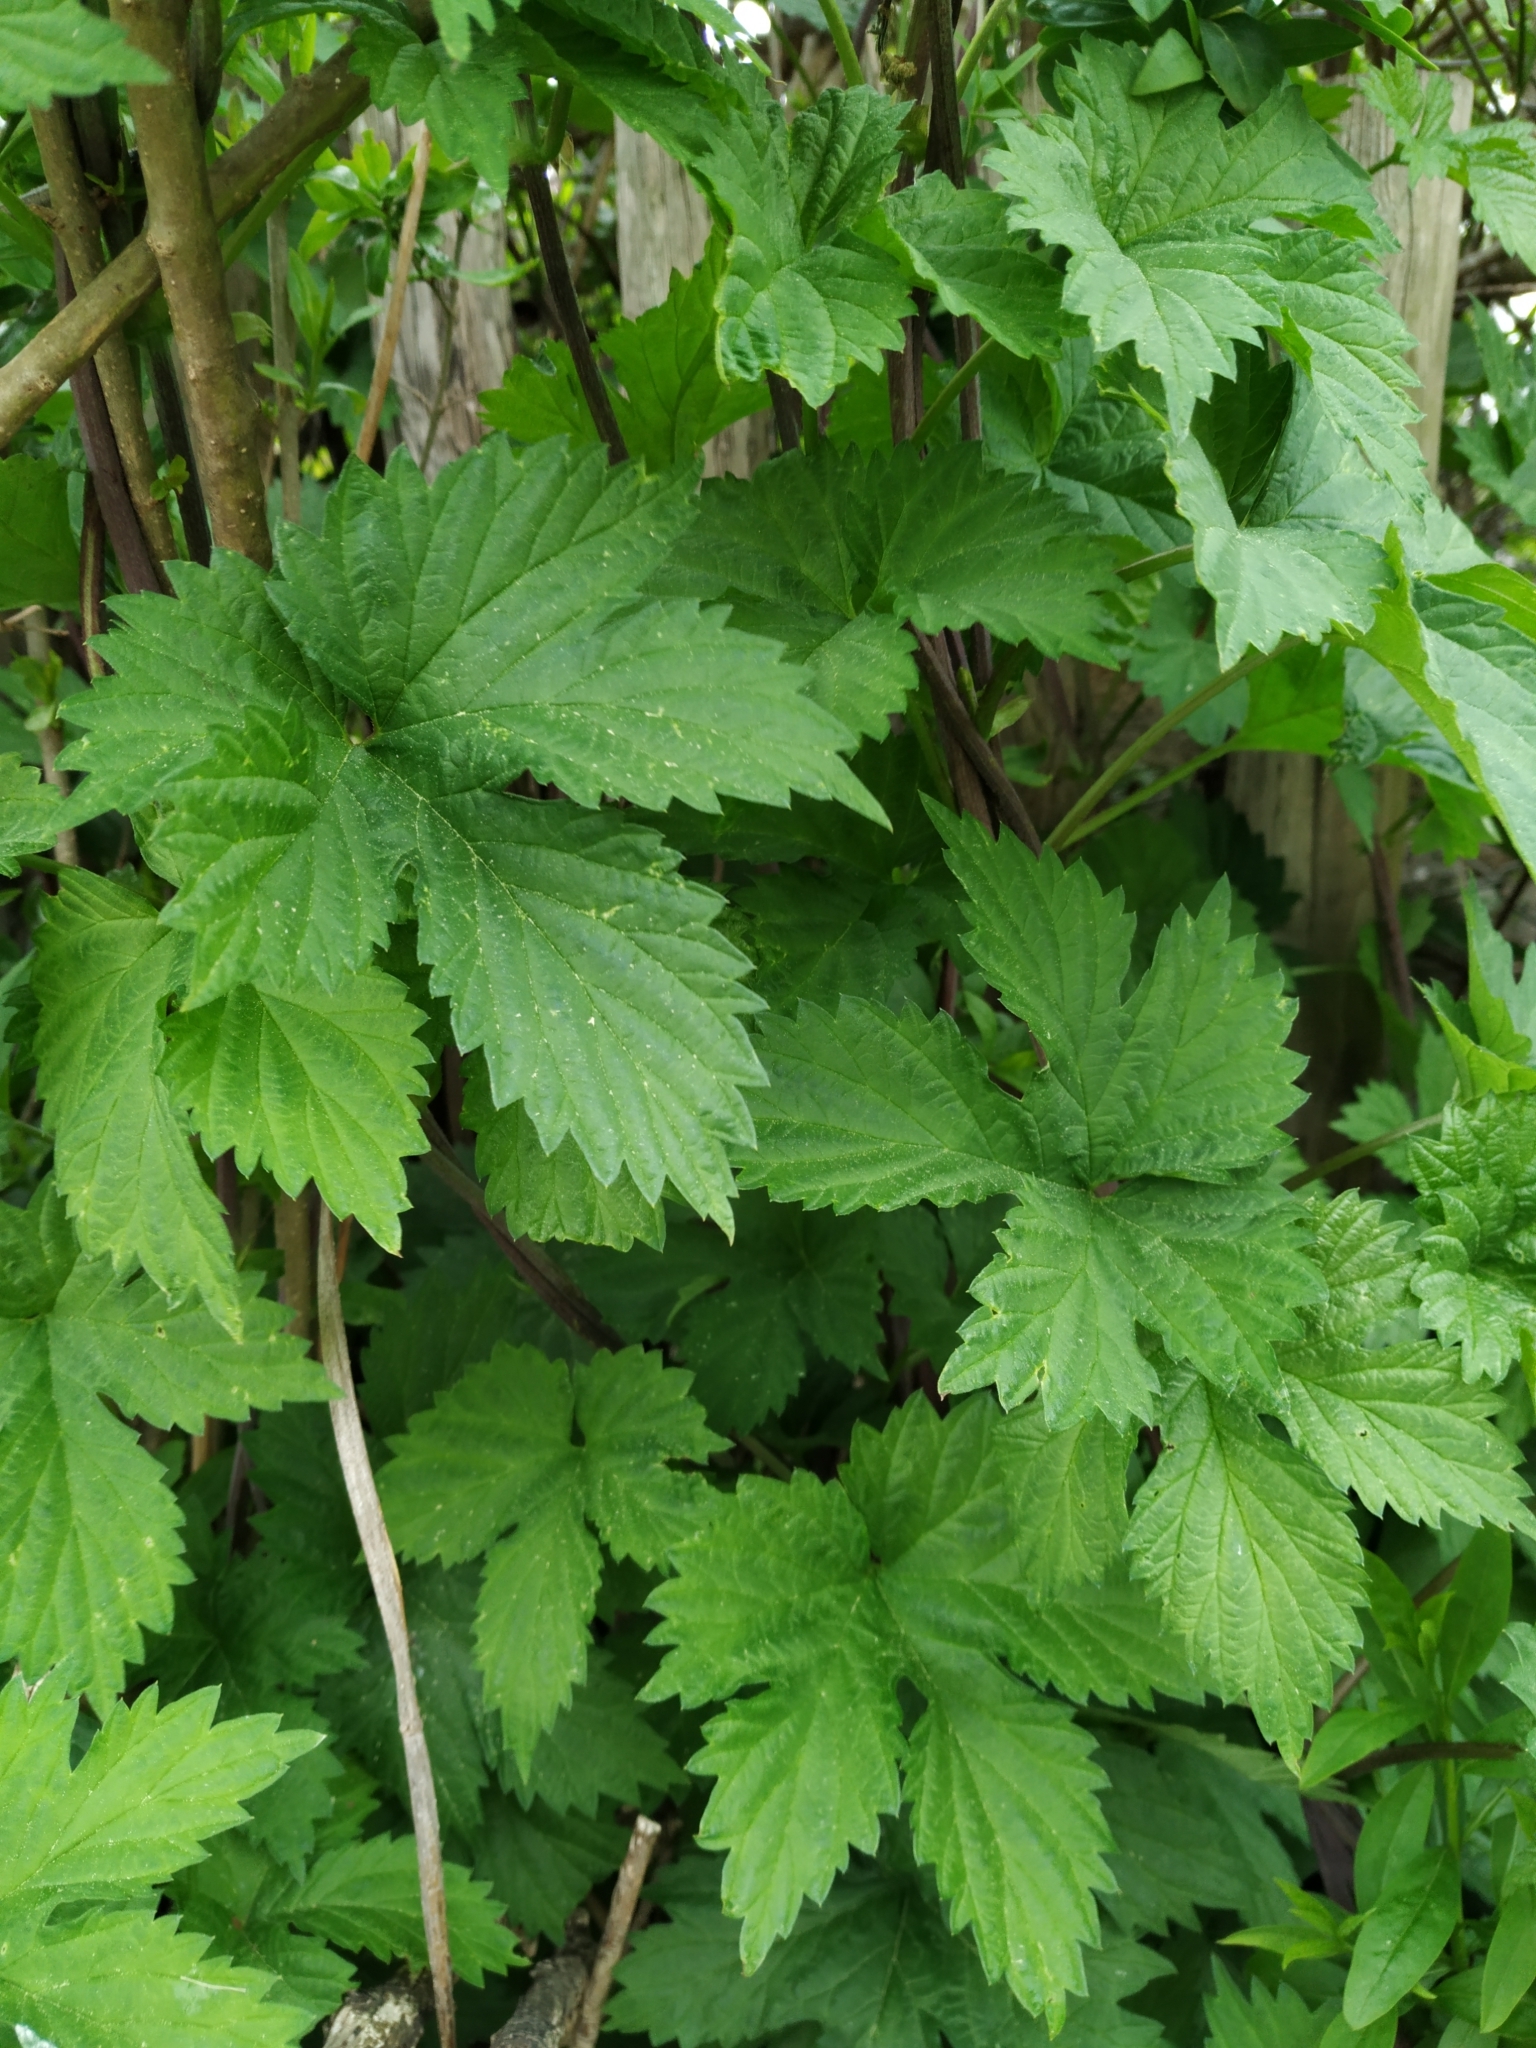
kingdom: Plantae
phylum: Tracheophyta
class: Magnoliopsida
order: Rosales
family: Cannabaceae
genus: Humulus
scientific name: Humulus lupulus
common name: Hop
